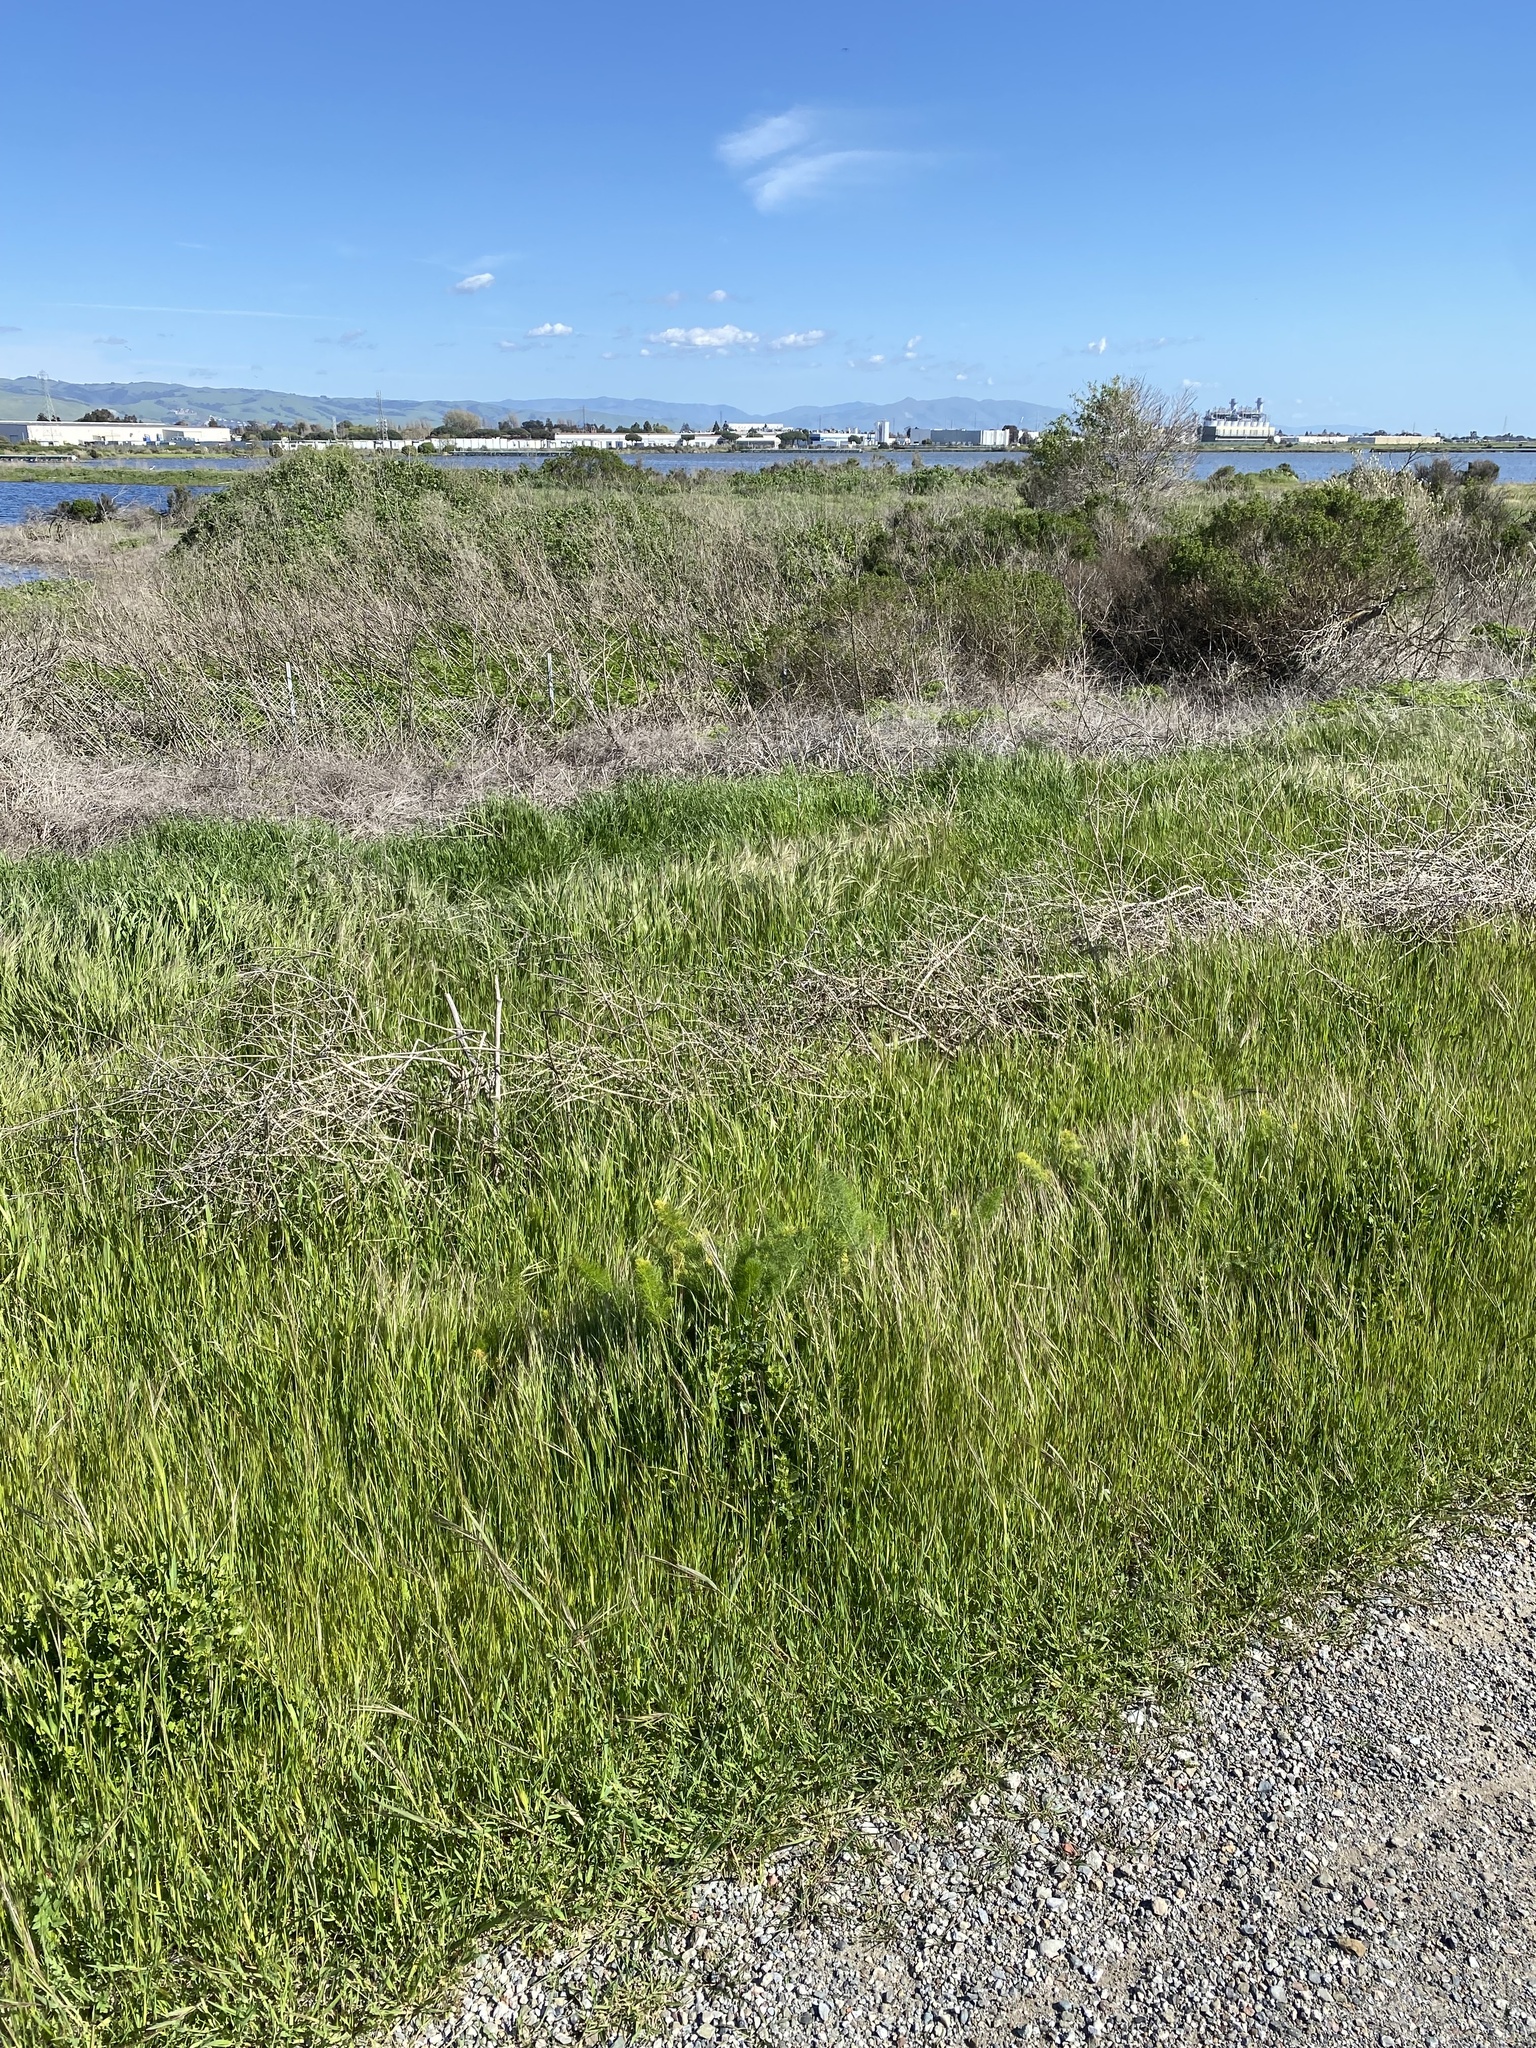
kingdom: Plantae
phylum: Tracheophyta
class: Magnoliopsida
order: Apiales
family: Apiaceae
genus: Foeniculum
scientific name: Foeniculum vulgare
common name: Fennel
